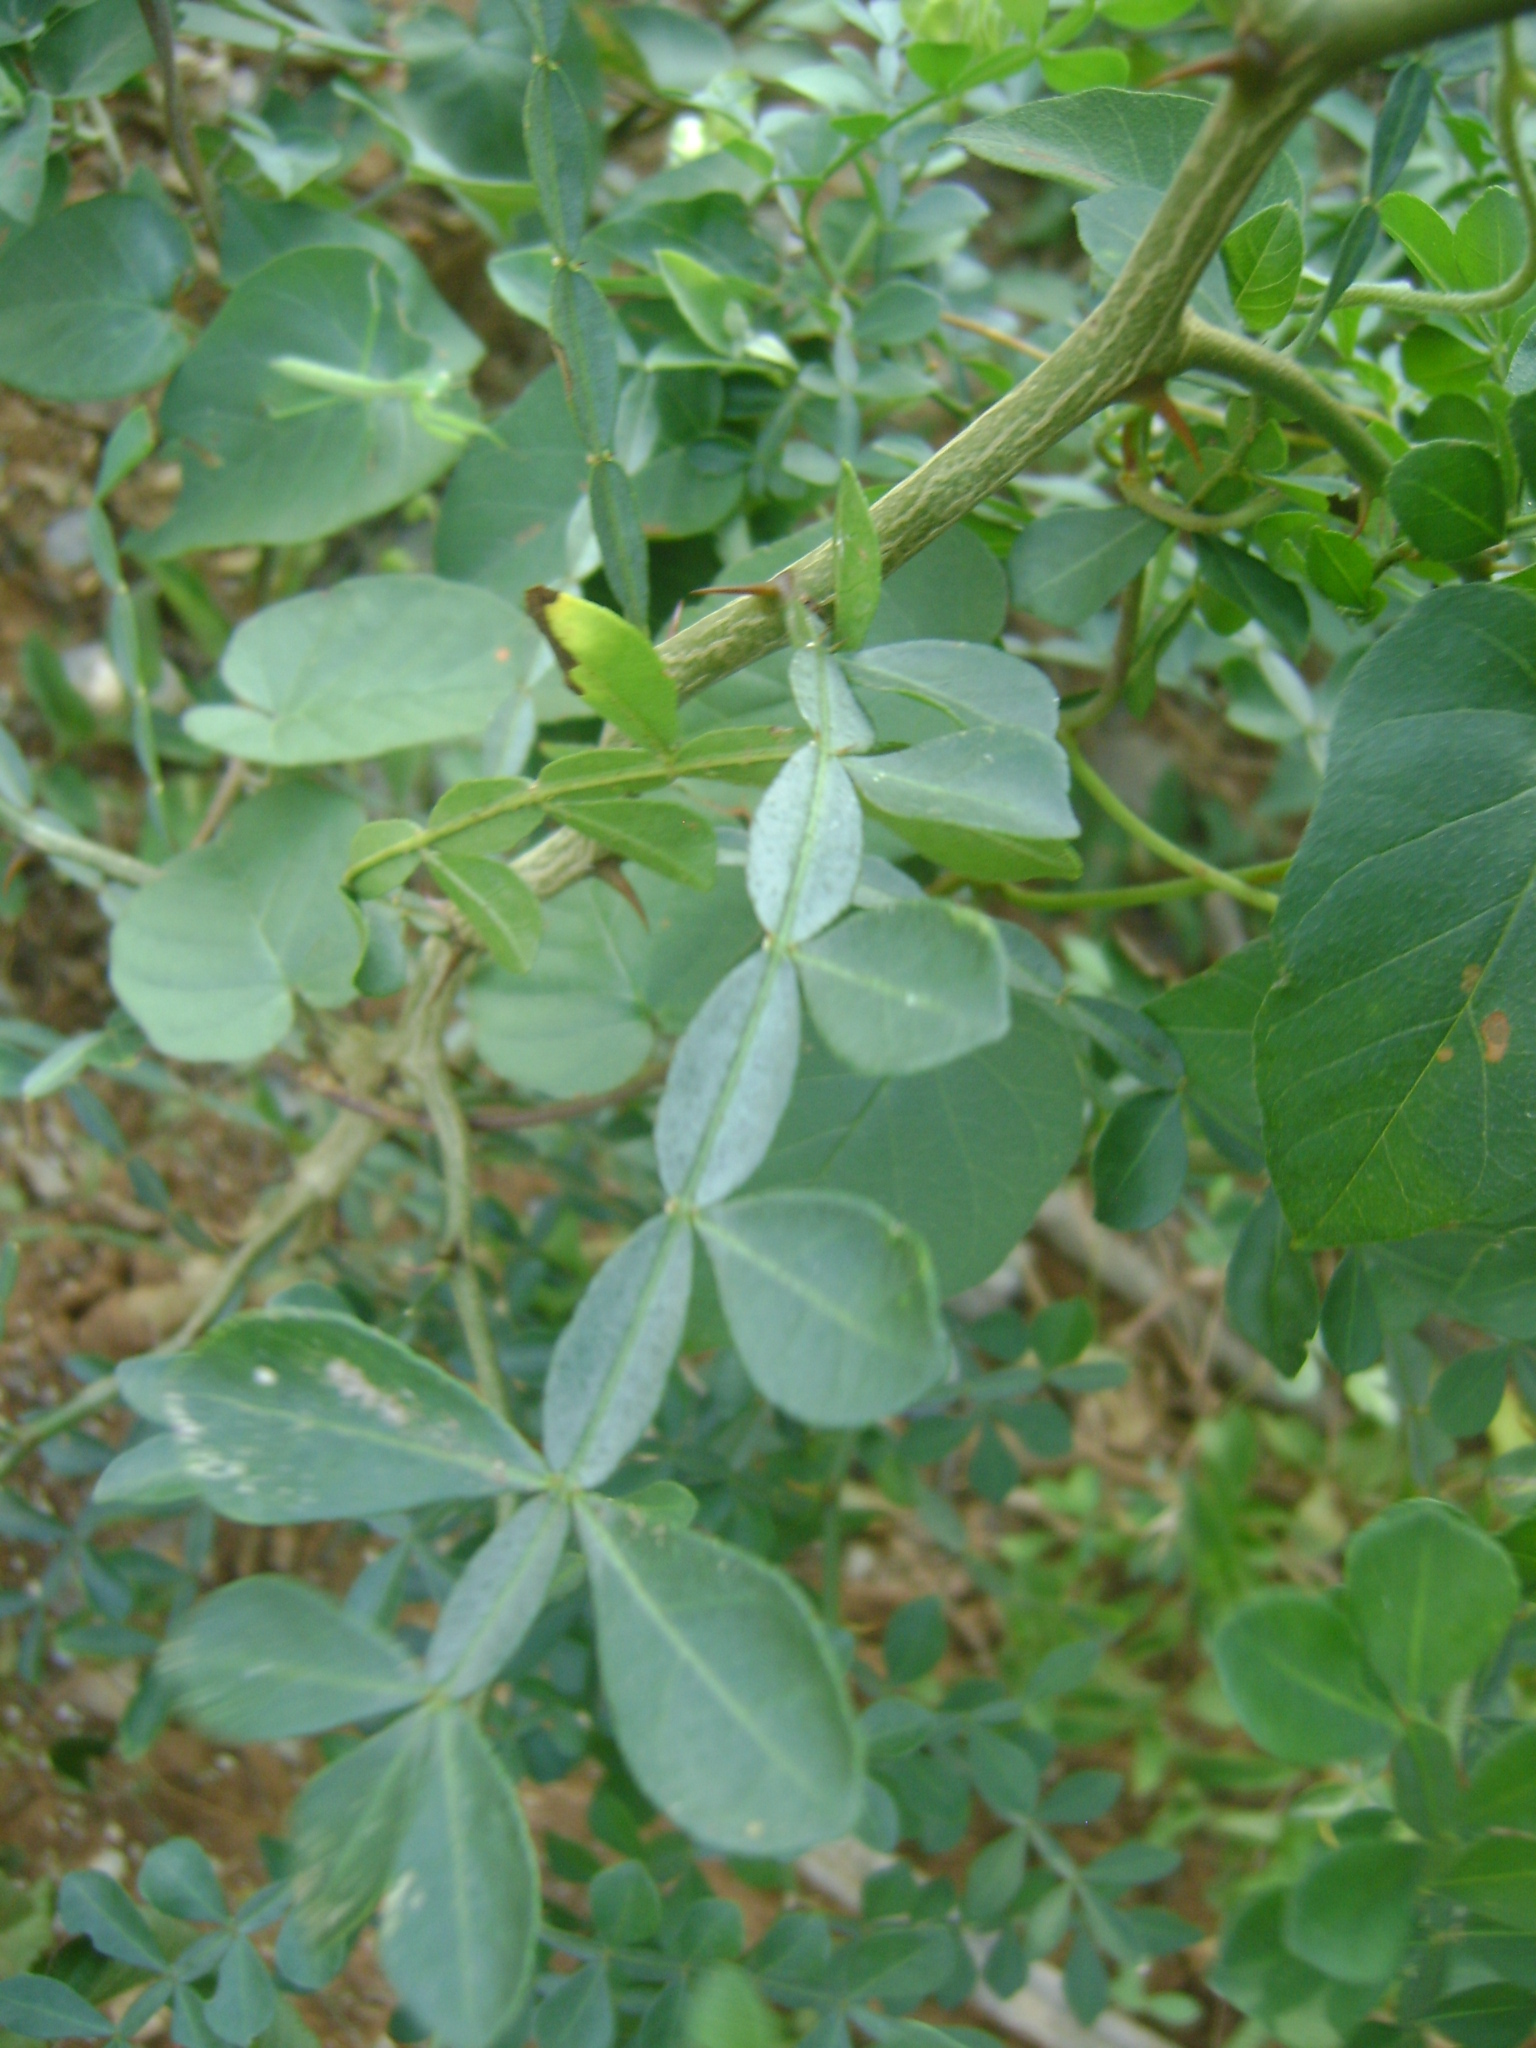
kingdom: Plantae
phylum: Tracheophyta
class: Magnoliopsida
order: Sapindales
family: Rutaceae
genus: Zanthoxylum
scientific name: Zanthoxylum fagara
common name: Lime prickly-ash
